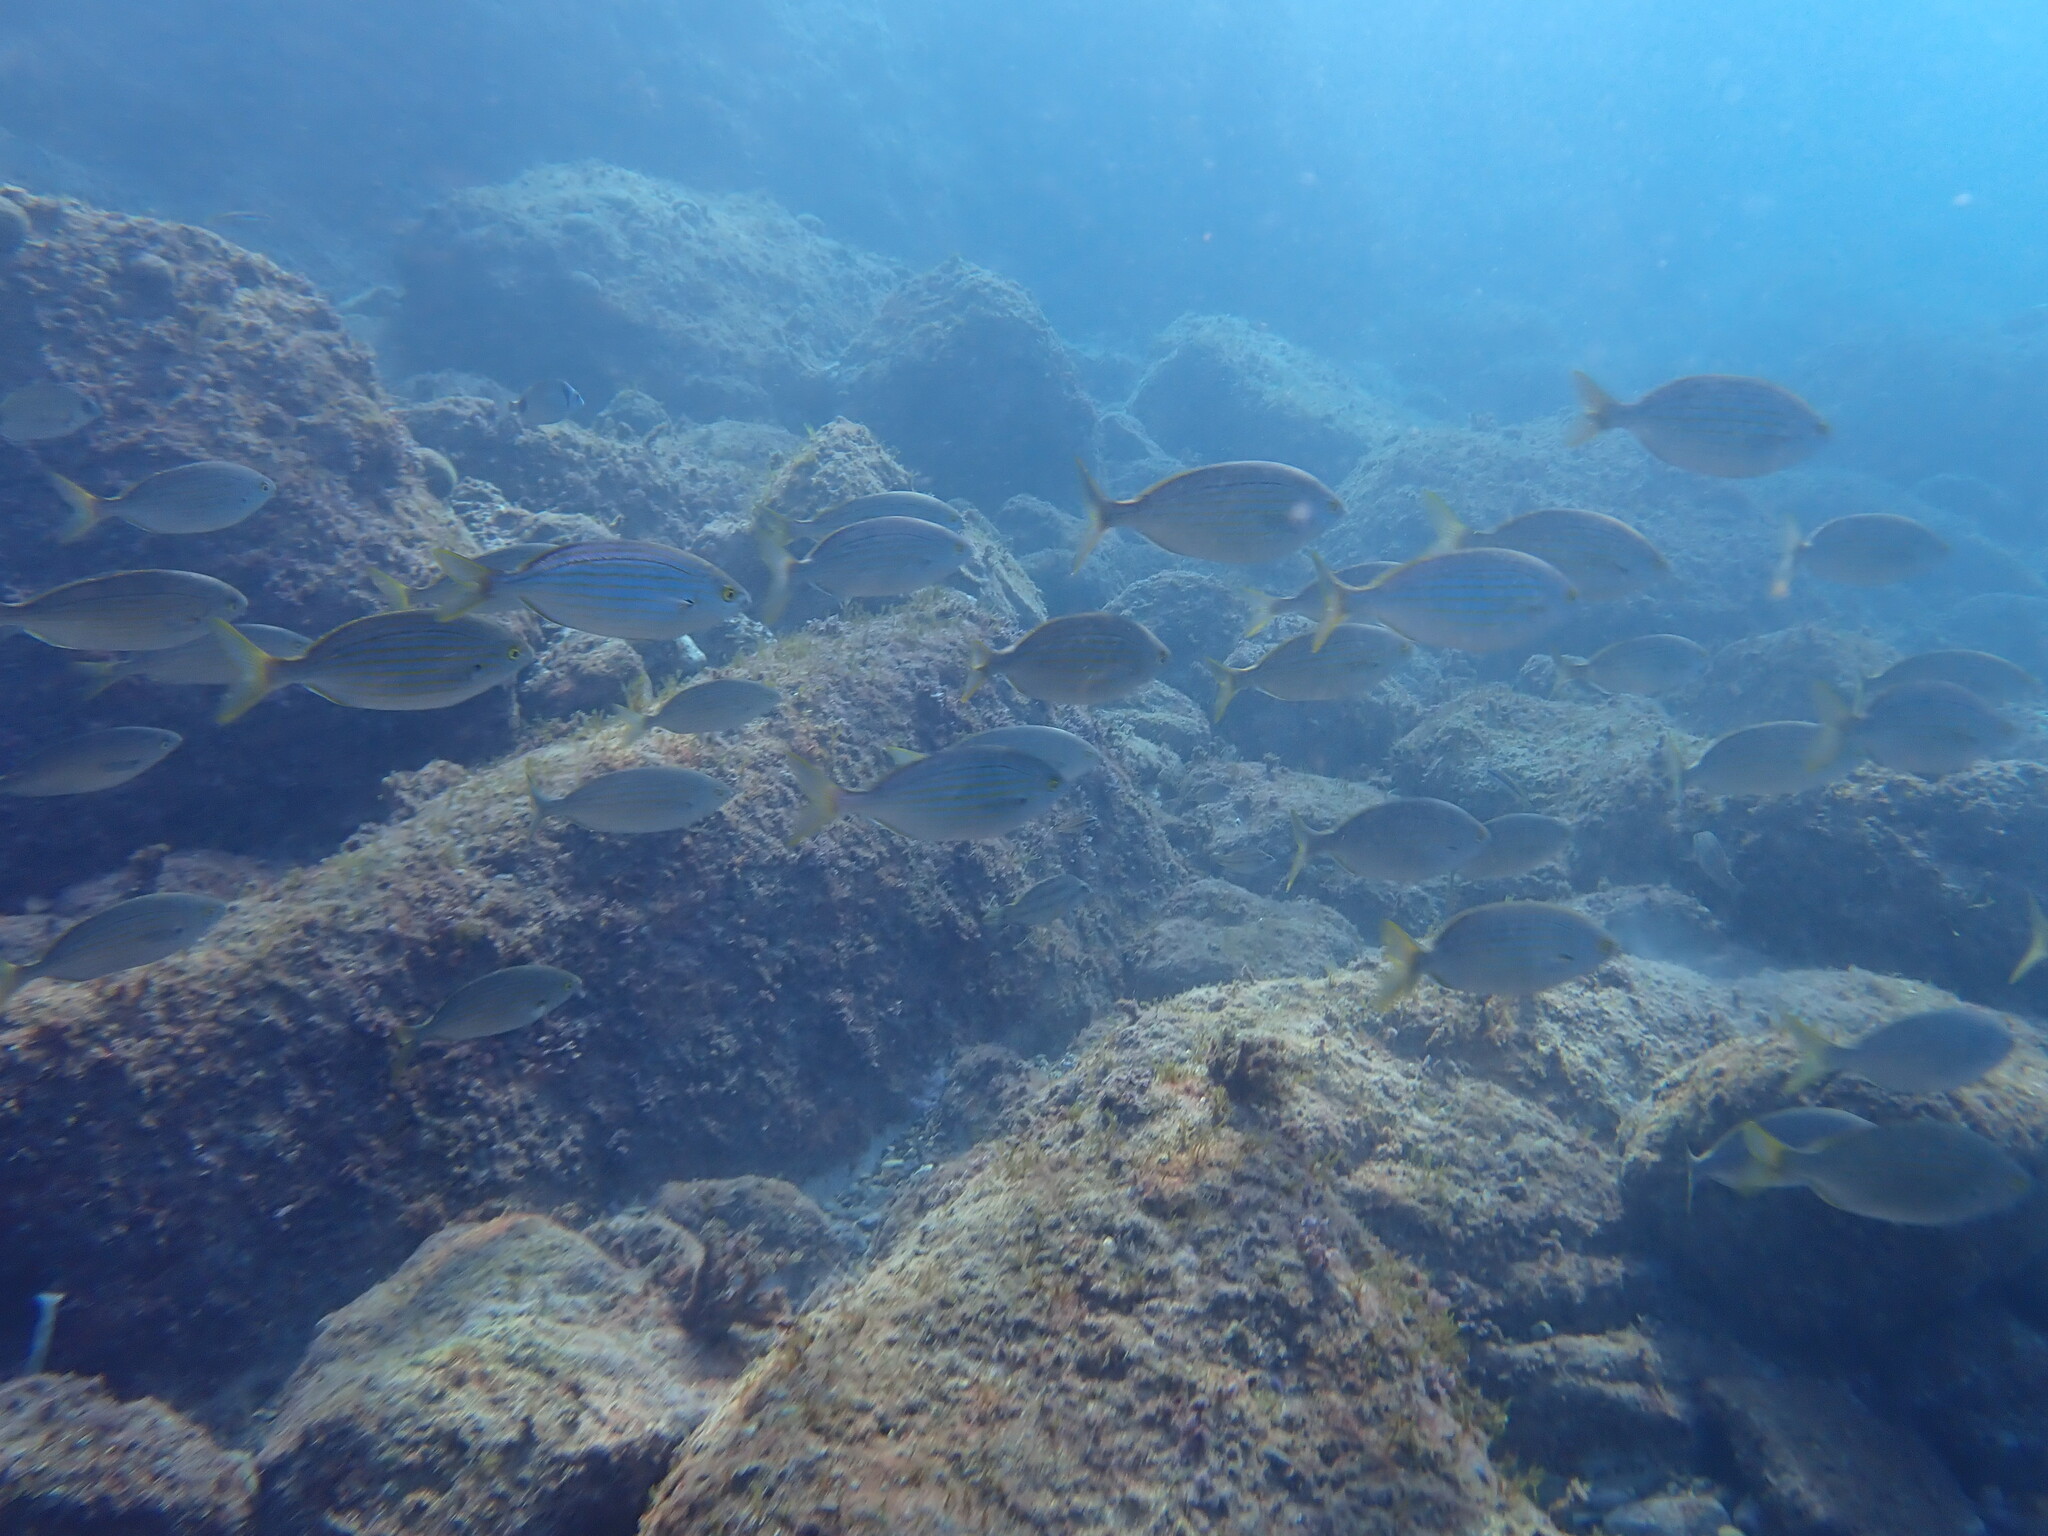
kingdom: Animalia
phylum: Chordata
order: Perciformes
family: Sparidae
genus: Sarpa
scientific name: Sarpa salpa
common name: Salema
